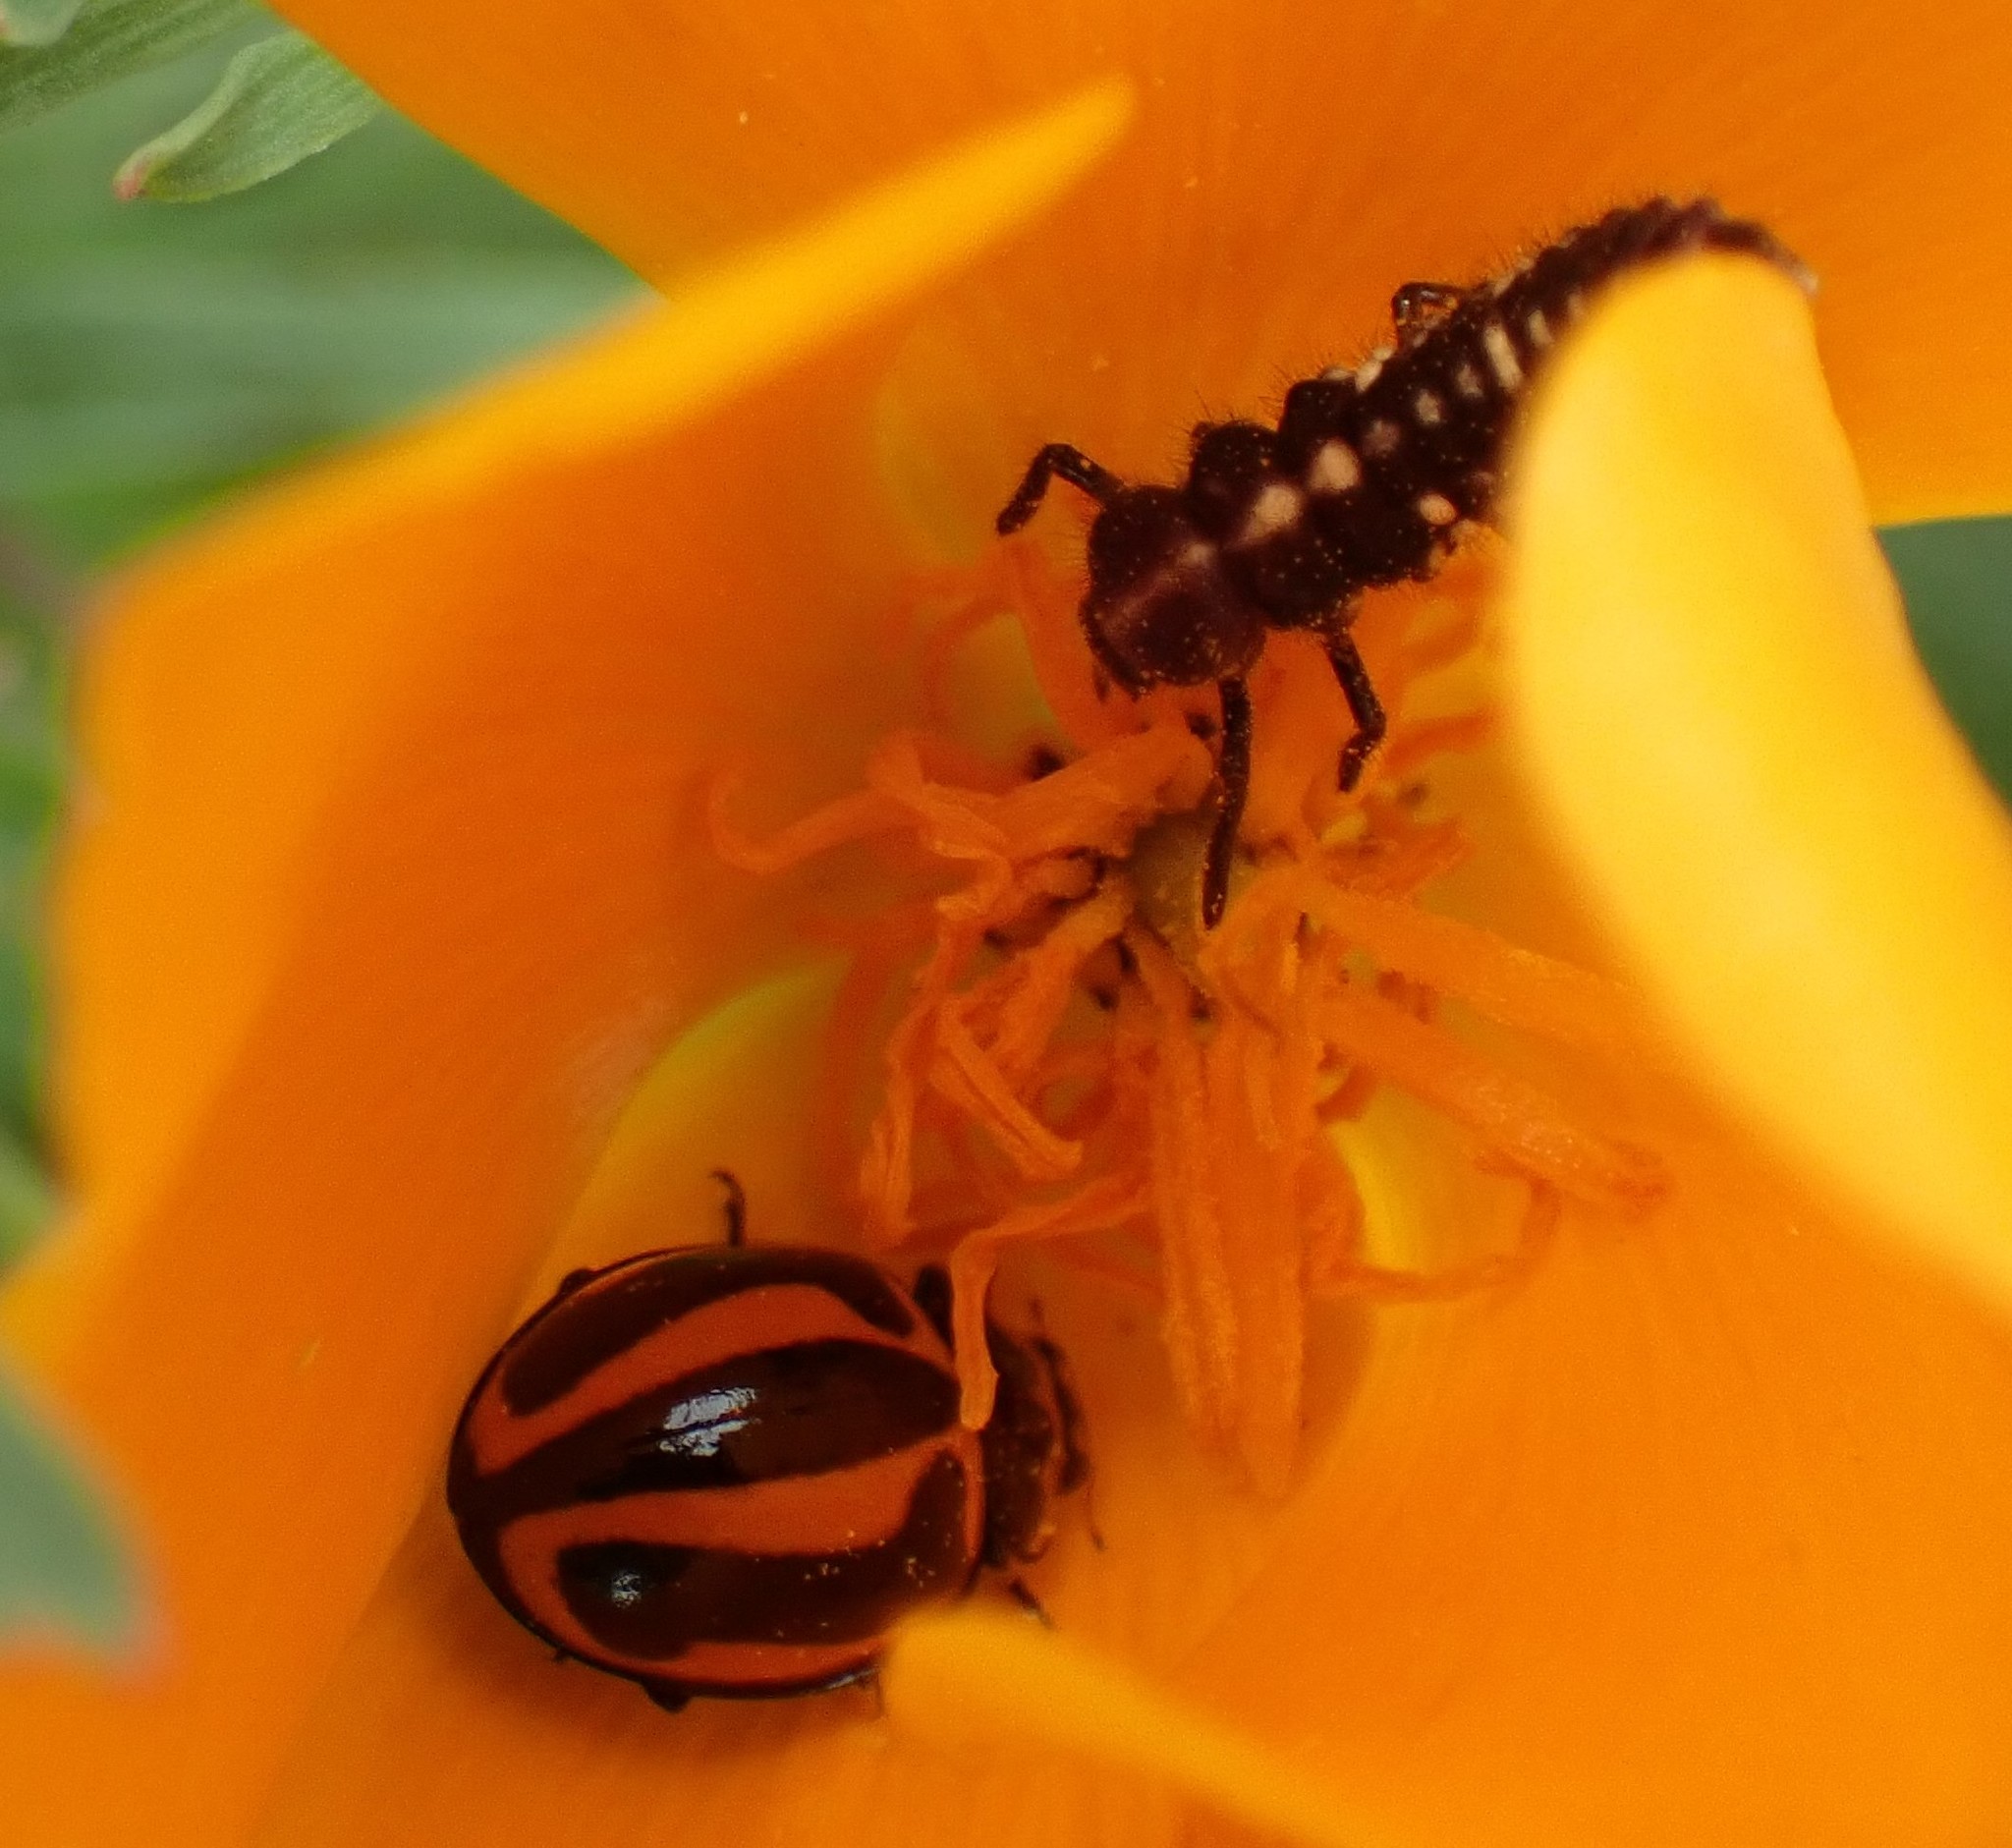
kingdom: Animalia
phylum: Arthropoda
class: Insecta
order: Coleoptera
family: Coccinellidae
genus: Micraspis
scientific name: Micraspis frenata
